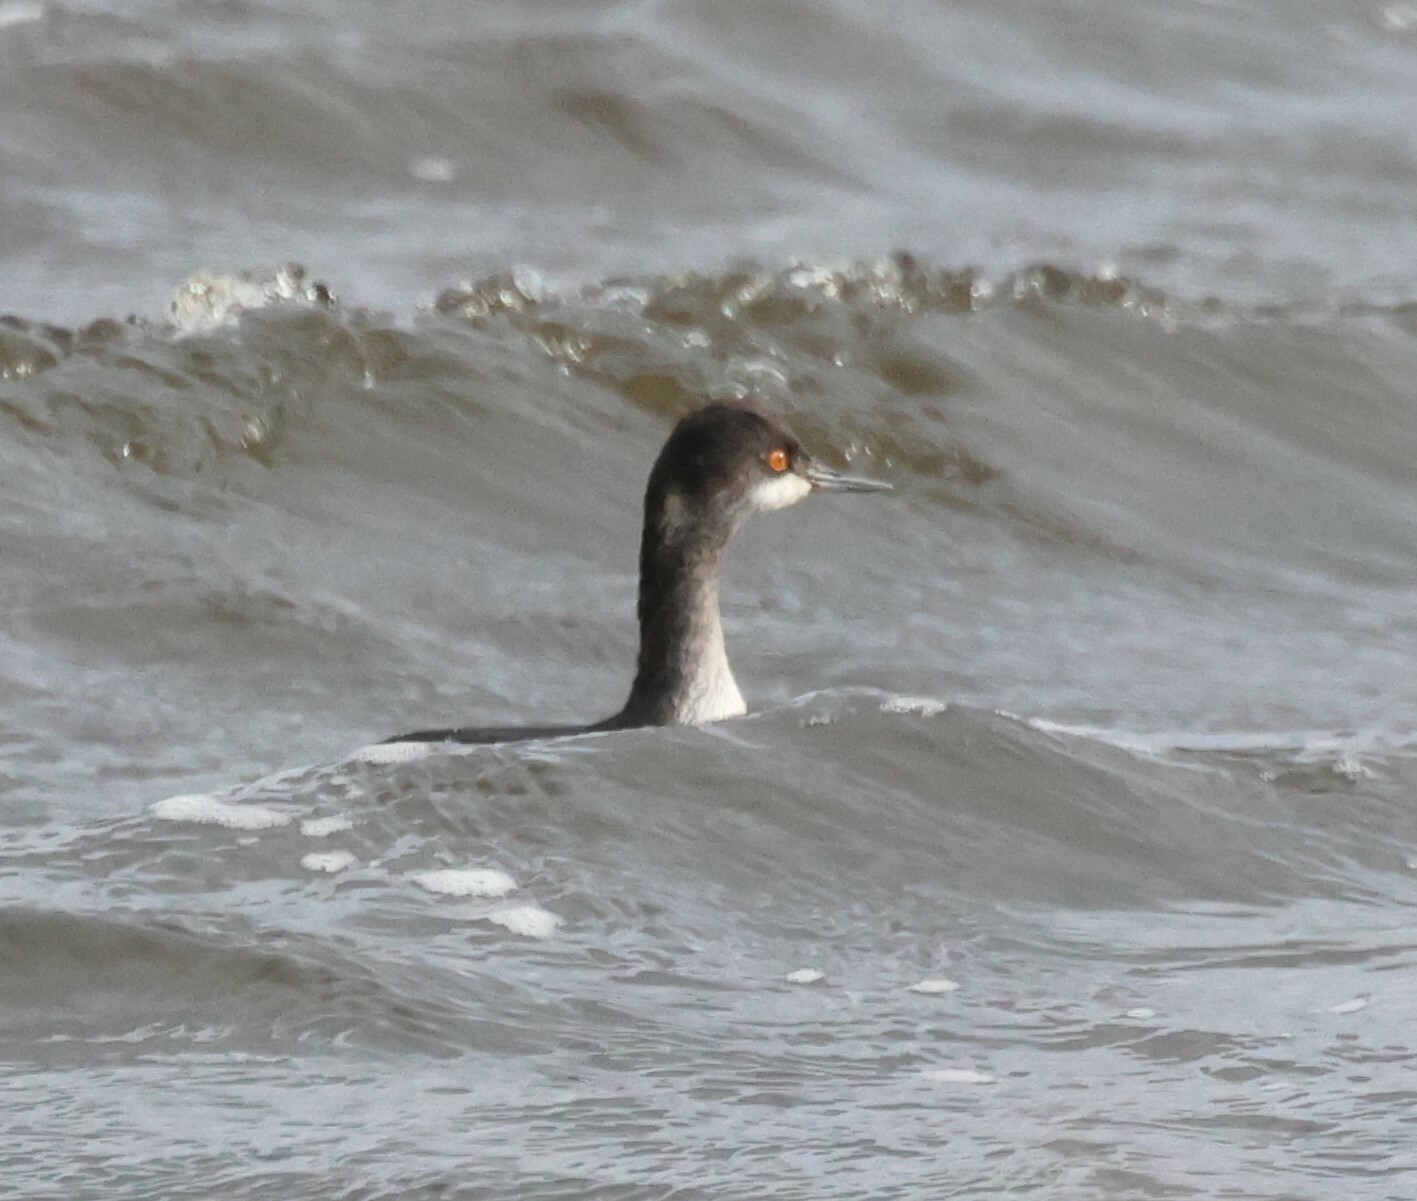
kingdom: Animalia
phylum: Chordata
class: Aves
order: Podicipediformes
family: Podicipedidae
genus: Podiceps
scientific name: Podiceps nigricollis
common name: Black-necked grebe
